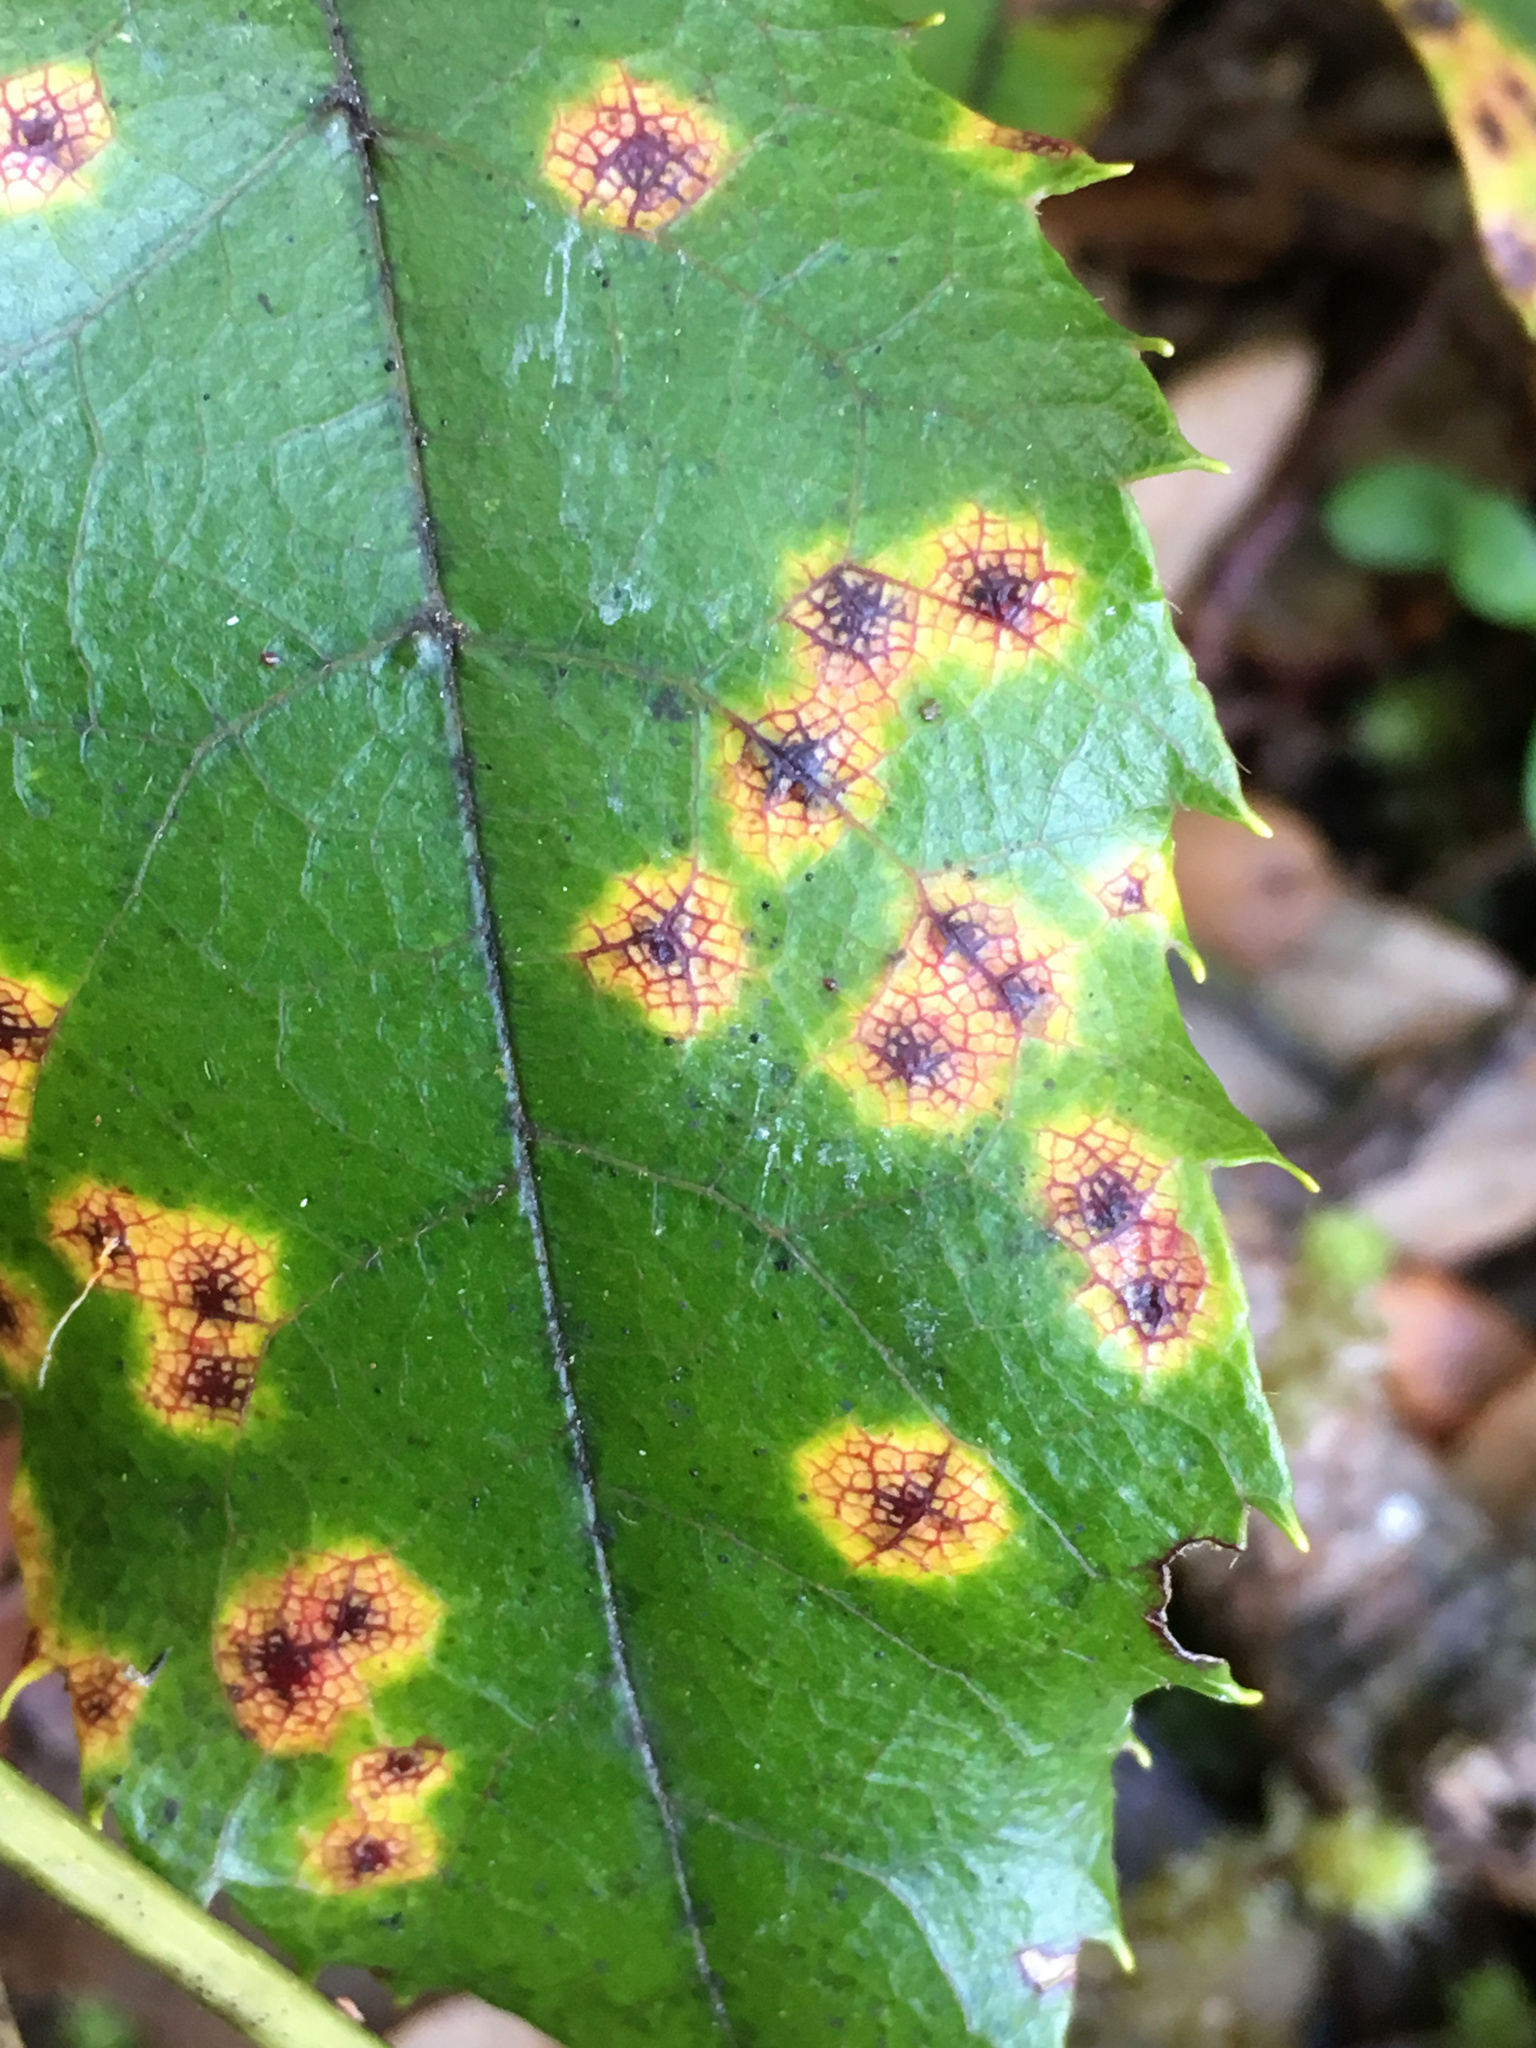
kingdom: Fungi
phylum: Basidiomycota
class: Pucciniomycetes
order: Pucciniales
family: Phragmidiaceae
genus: Hamaspora
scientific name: Hamaspora australis
